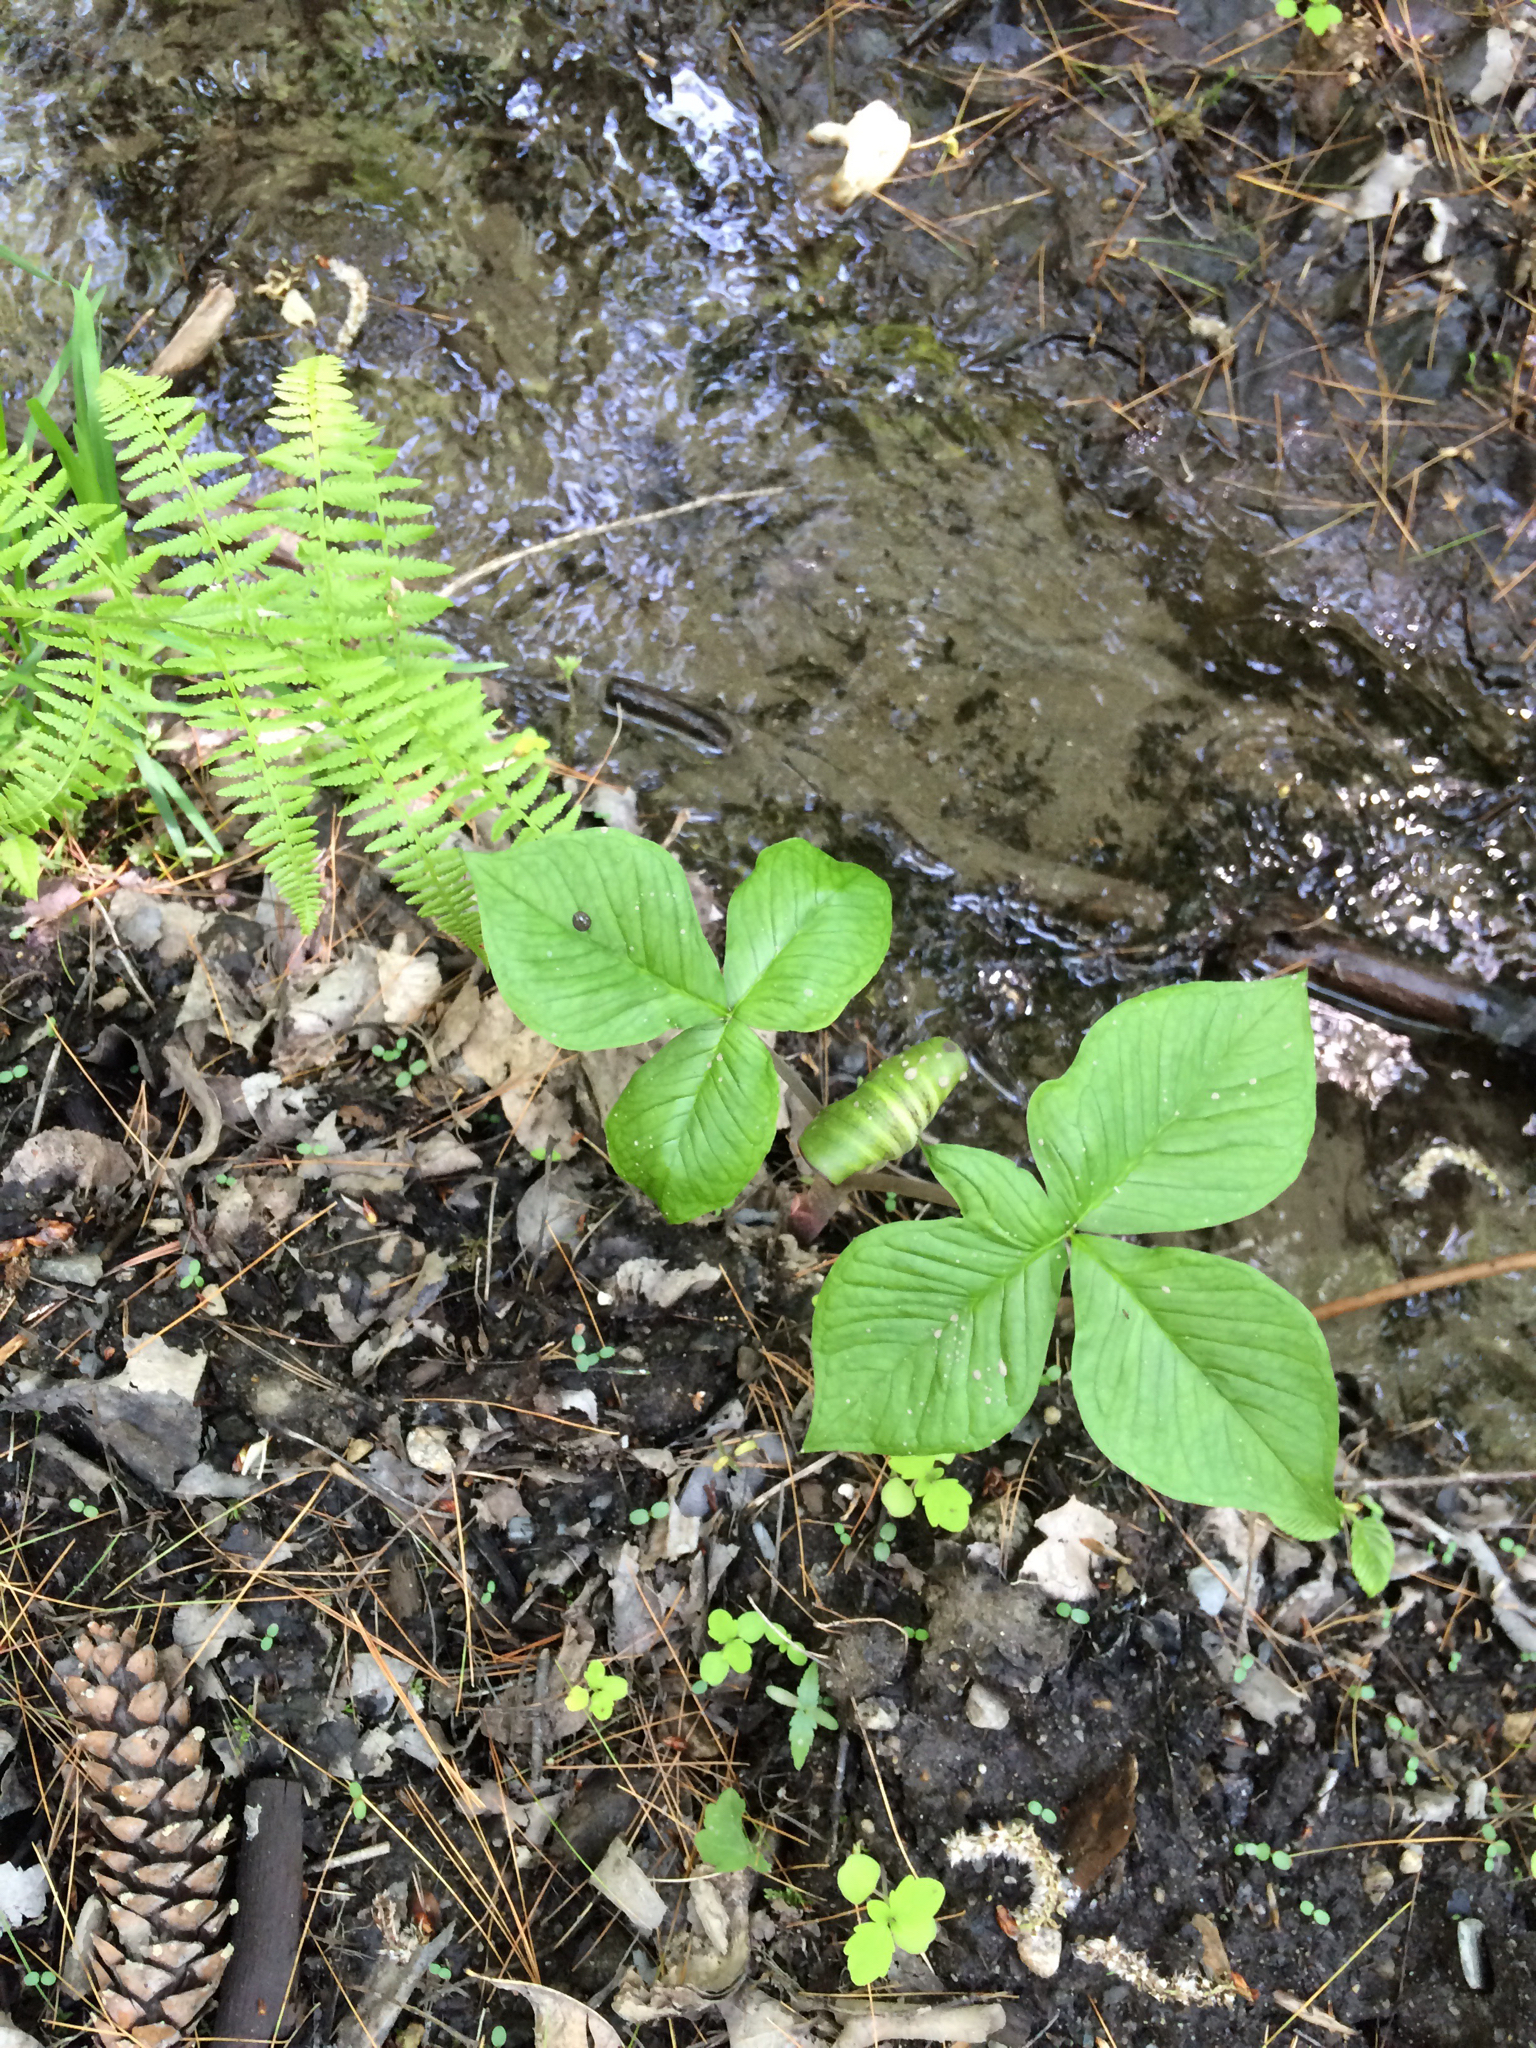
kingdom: Plantae
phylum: Tracheophyta
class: Liliopsida
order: Alismatales
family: Araceae
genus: Arisaema
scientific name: Arisaema triphyllum
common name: Jack-in-the-pulpit
